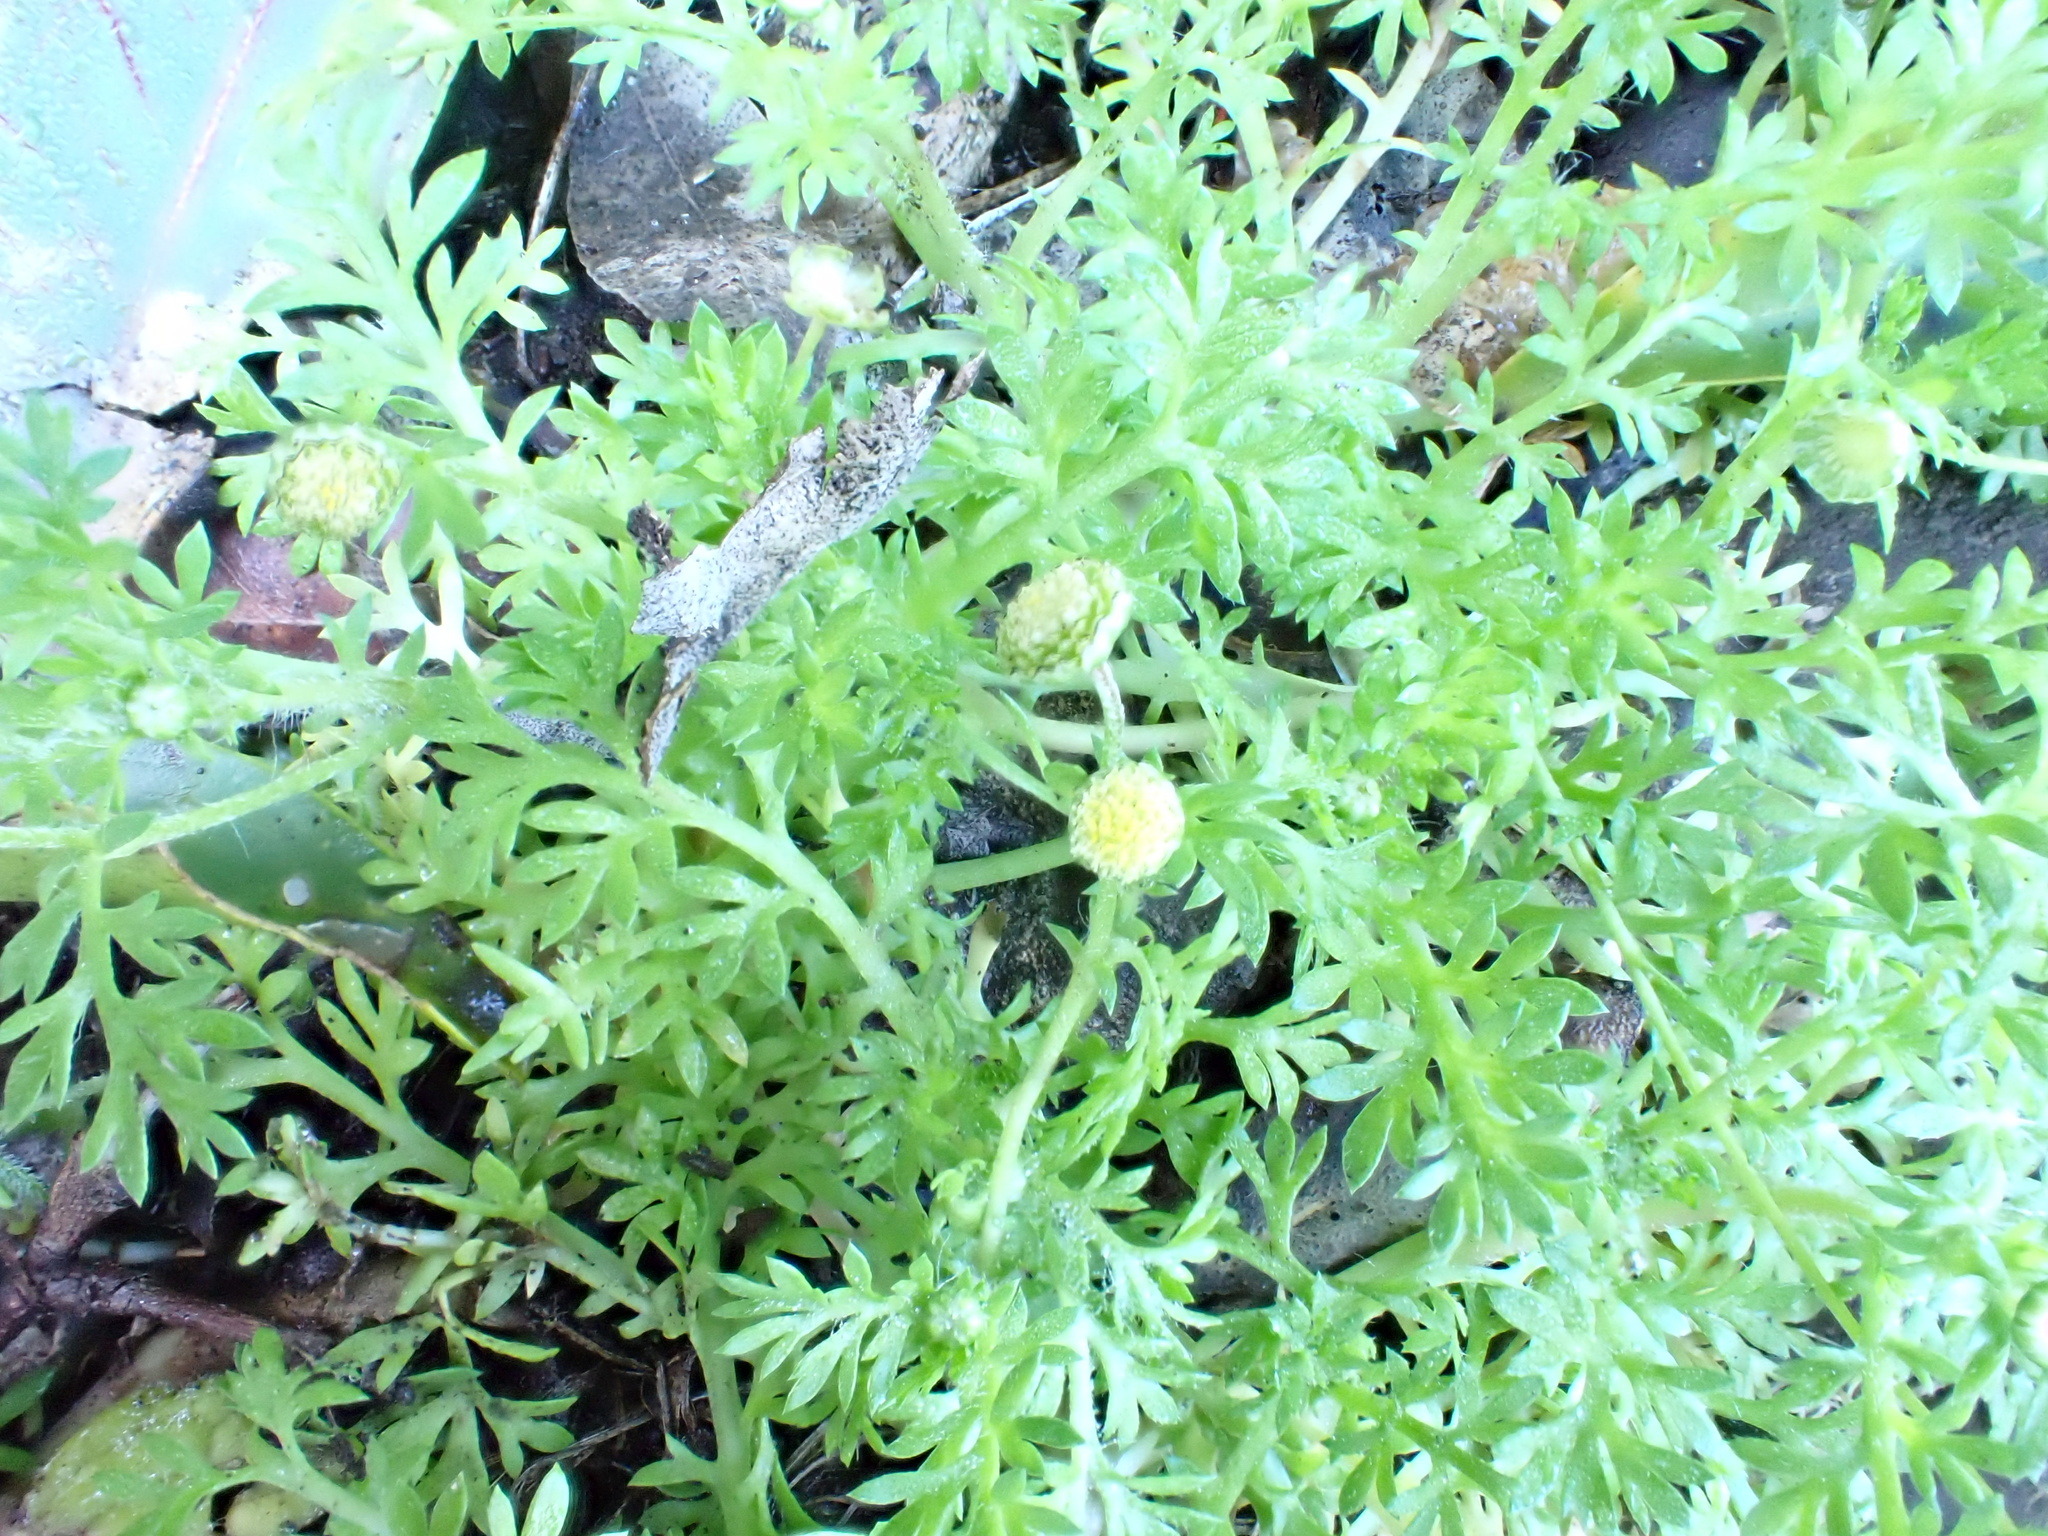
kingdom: Plantae
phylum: Tracheophyta
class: Magnoliopsida
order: Asterales
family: Asteraceae
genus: Cotula
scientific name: Cotula australis
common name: Australian waterbuttons
